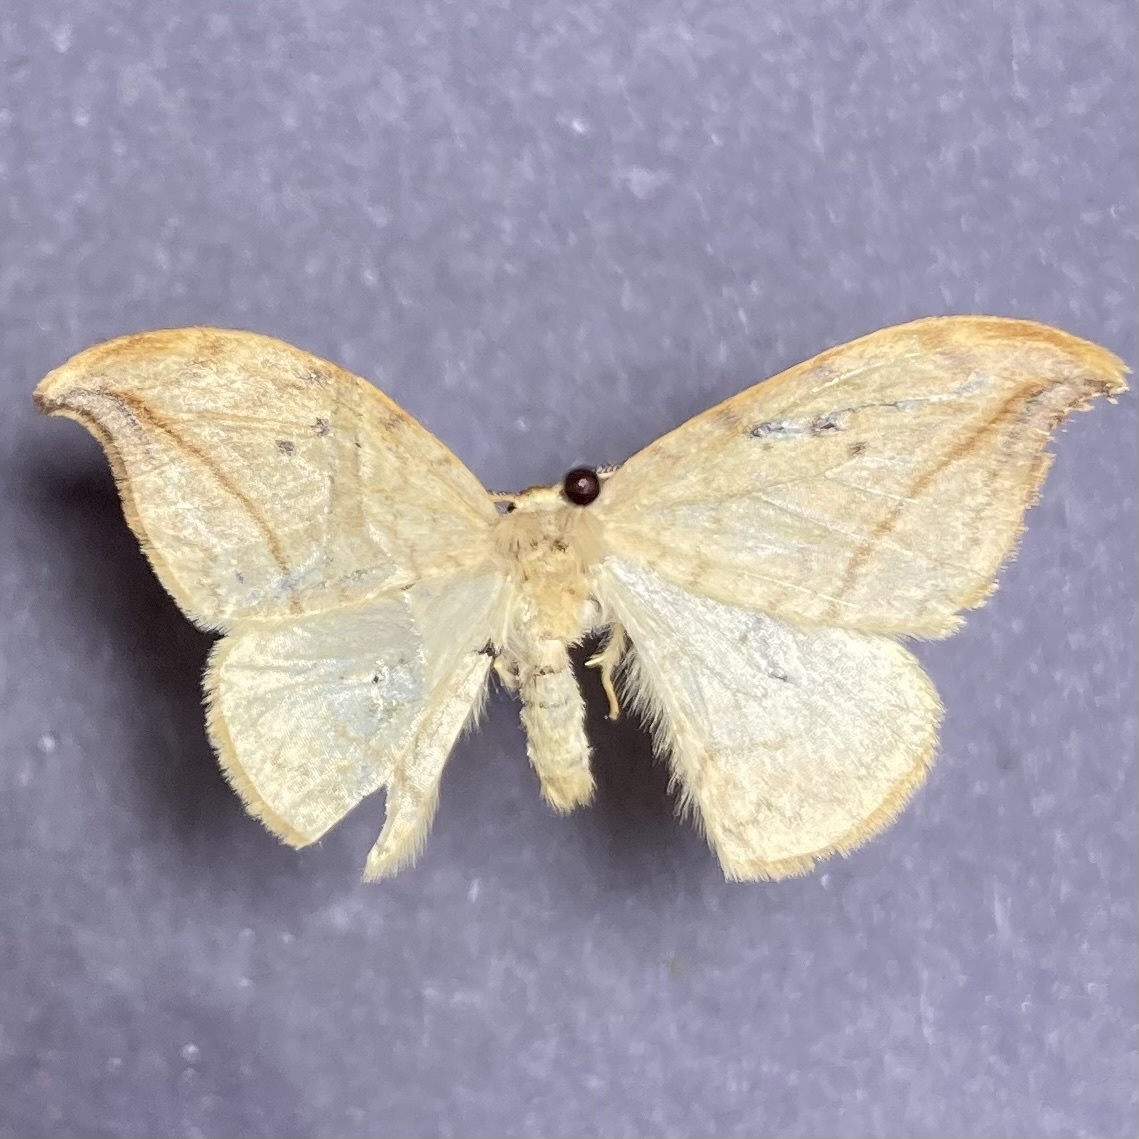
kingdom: Animalia
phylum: Arthropoda
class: Insecta
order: Lepidoptera
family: Drepanidae
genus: Drepana
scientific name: Drepana arcuata
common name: Arched hooktip moth
